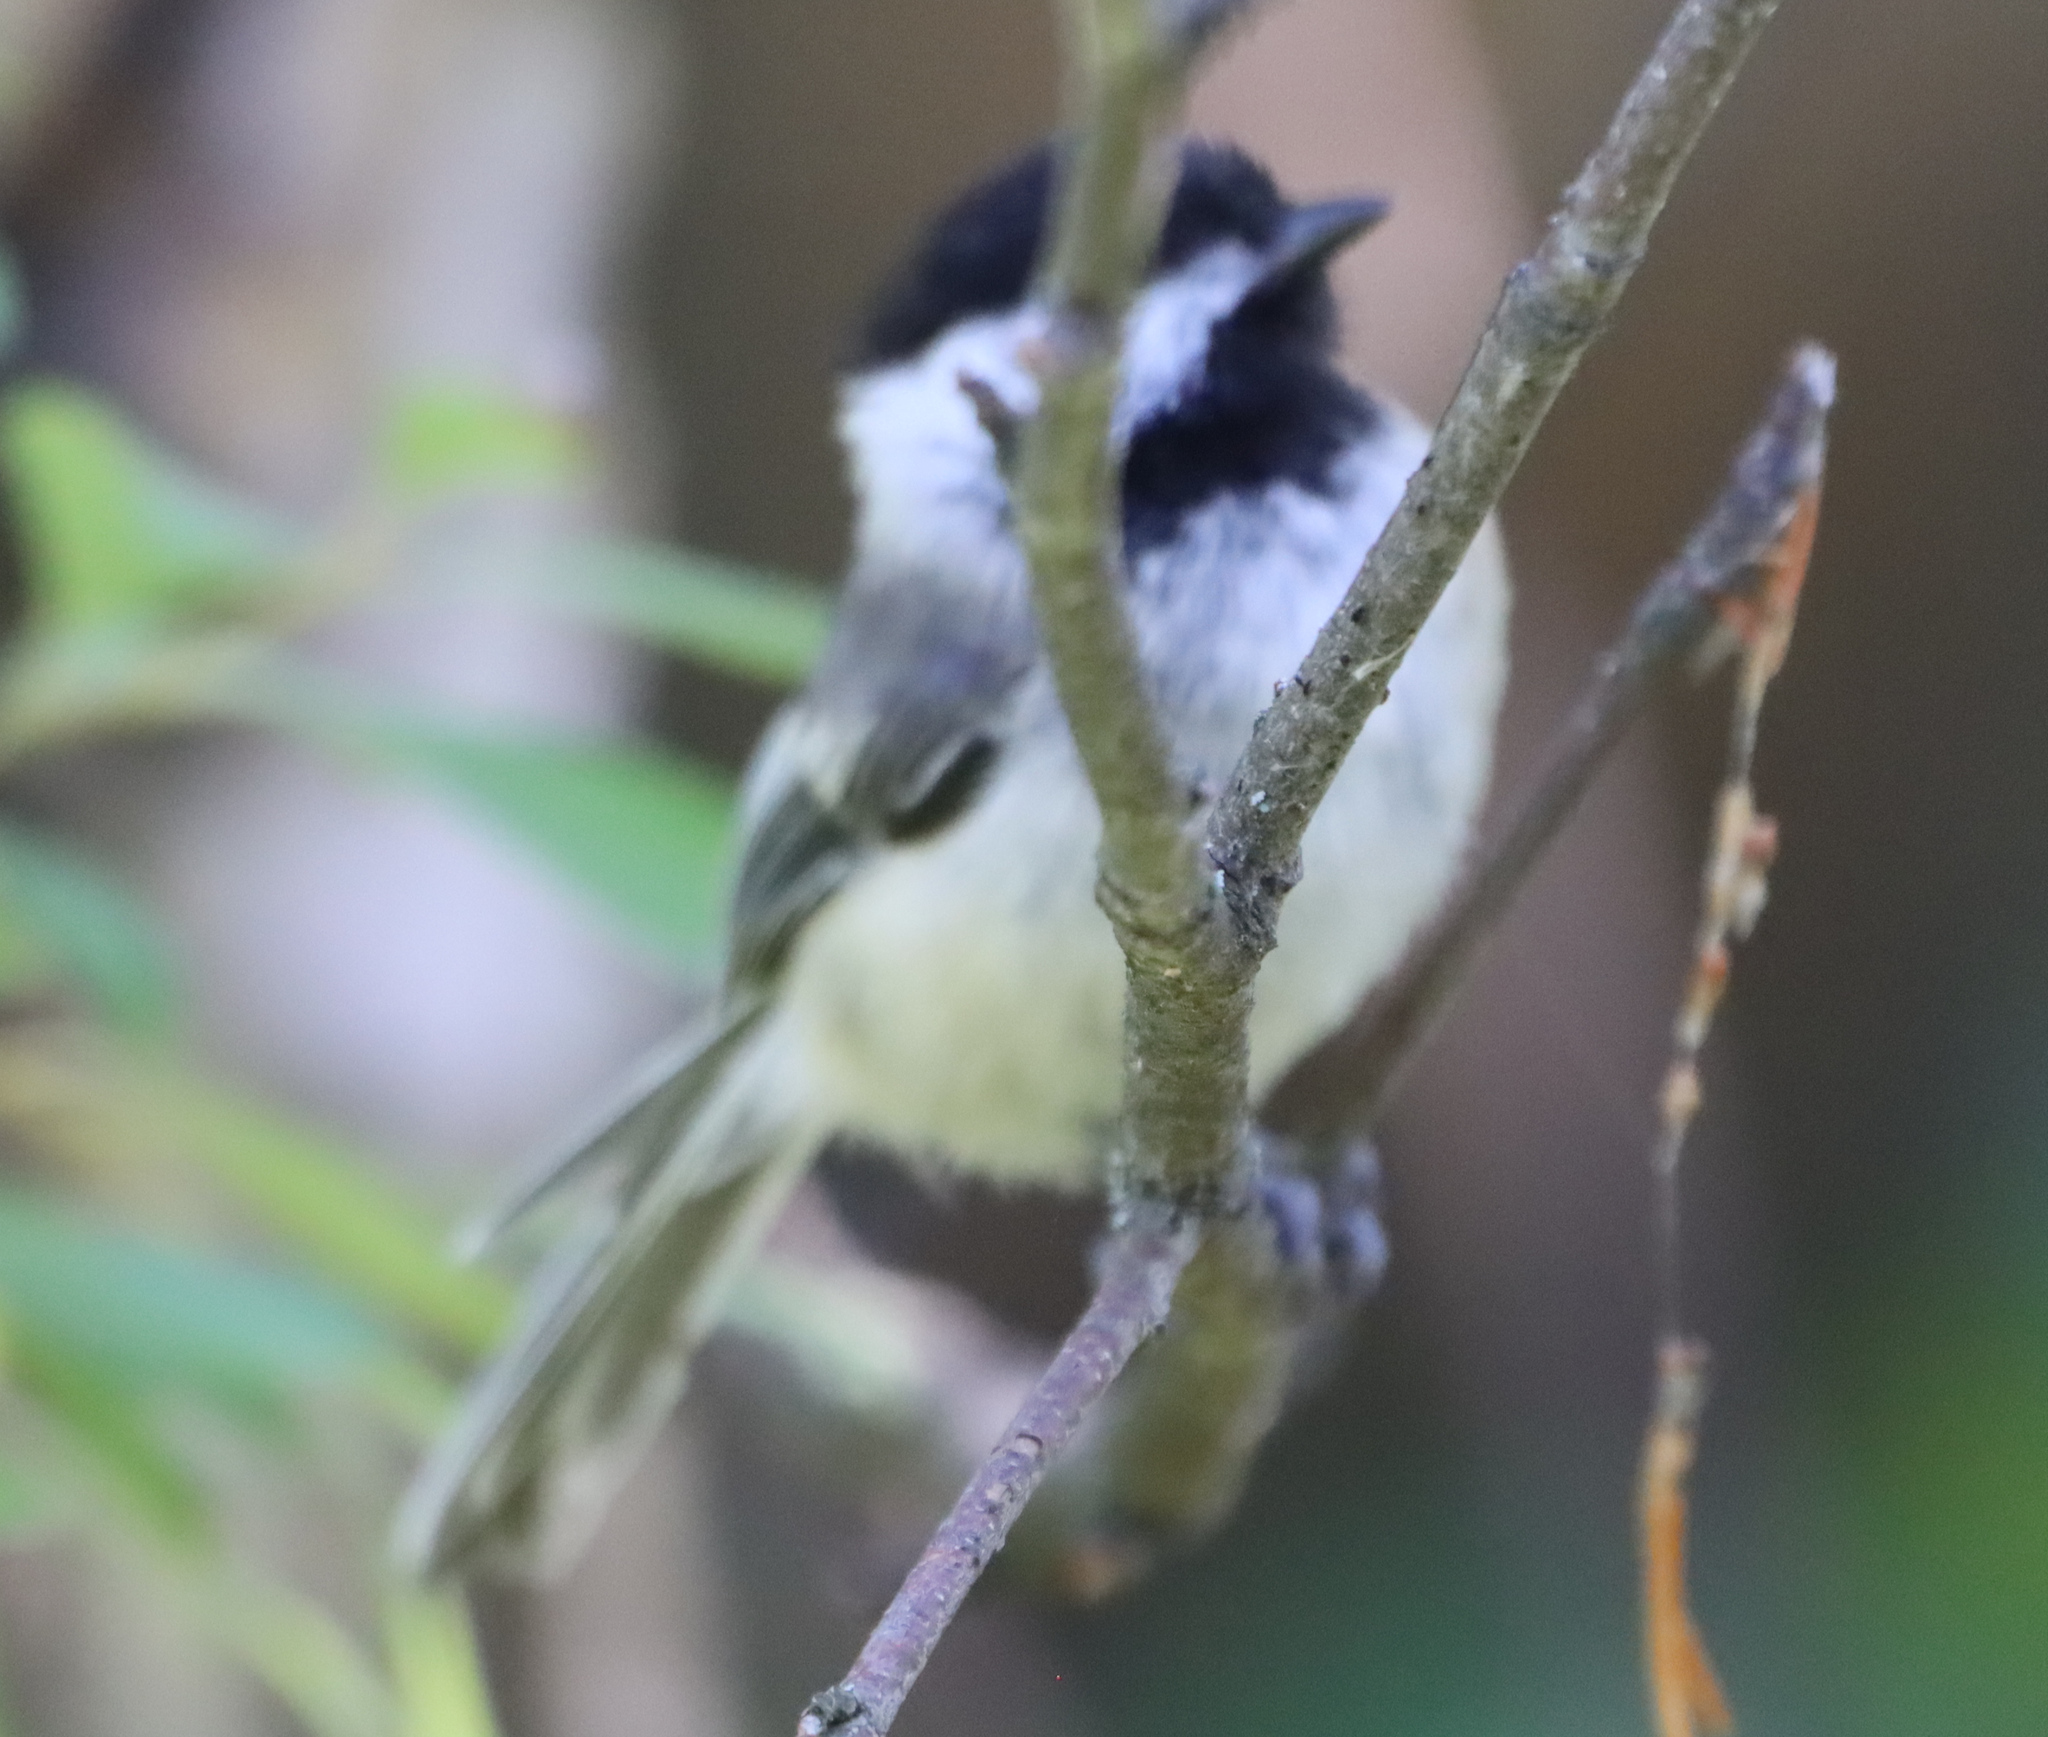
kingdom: Animalia
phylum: Chordata
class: Aves
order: Passeriformes
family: Paridae
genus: Poecile
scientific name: Poecile atricapillus
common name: Black-capped chickadee
